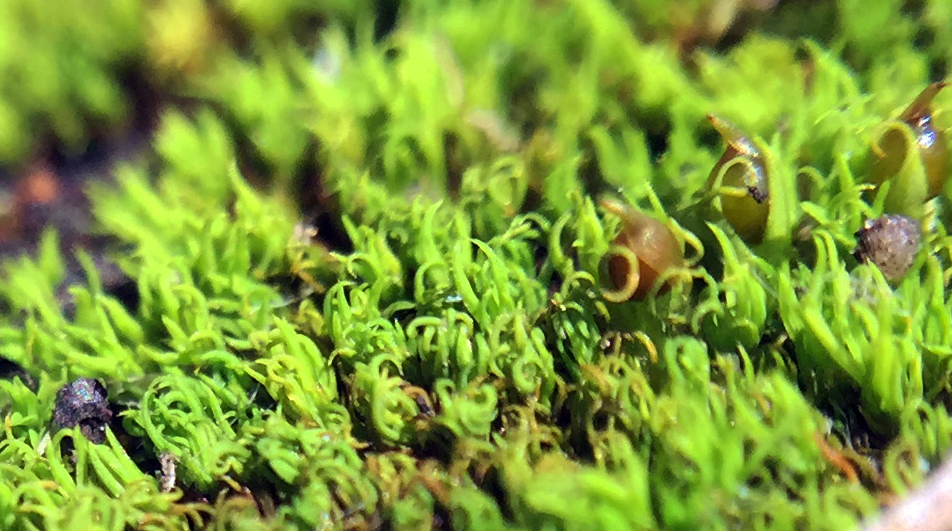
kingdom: Plantae
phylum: Bryophyta
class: Bryopsida
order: Pottiales
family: Pottiaceae
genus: Weissia
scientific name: Weissia muhlenbergiana
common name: Mühlenberg's weissia
